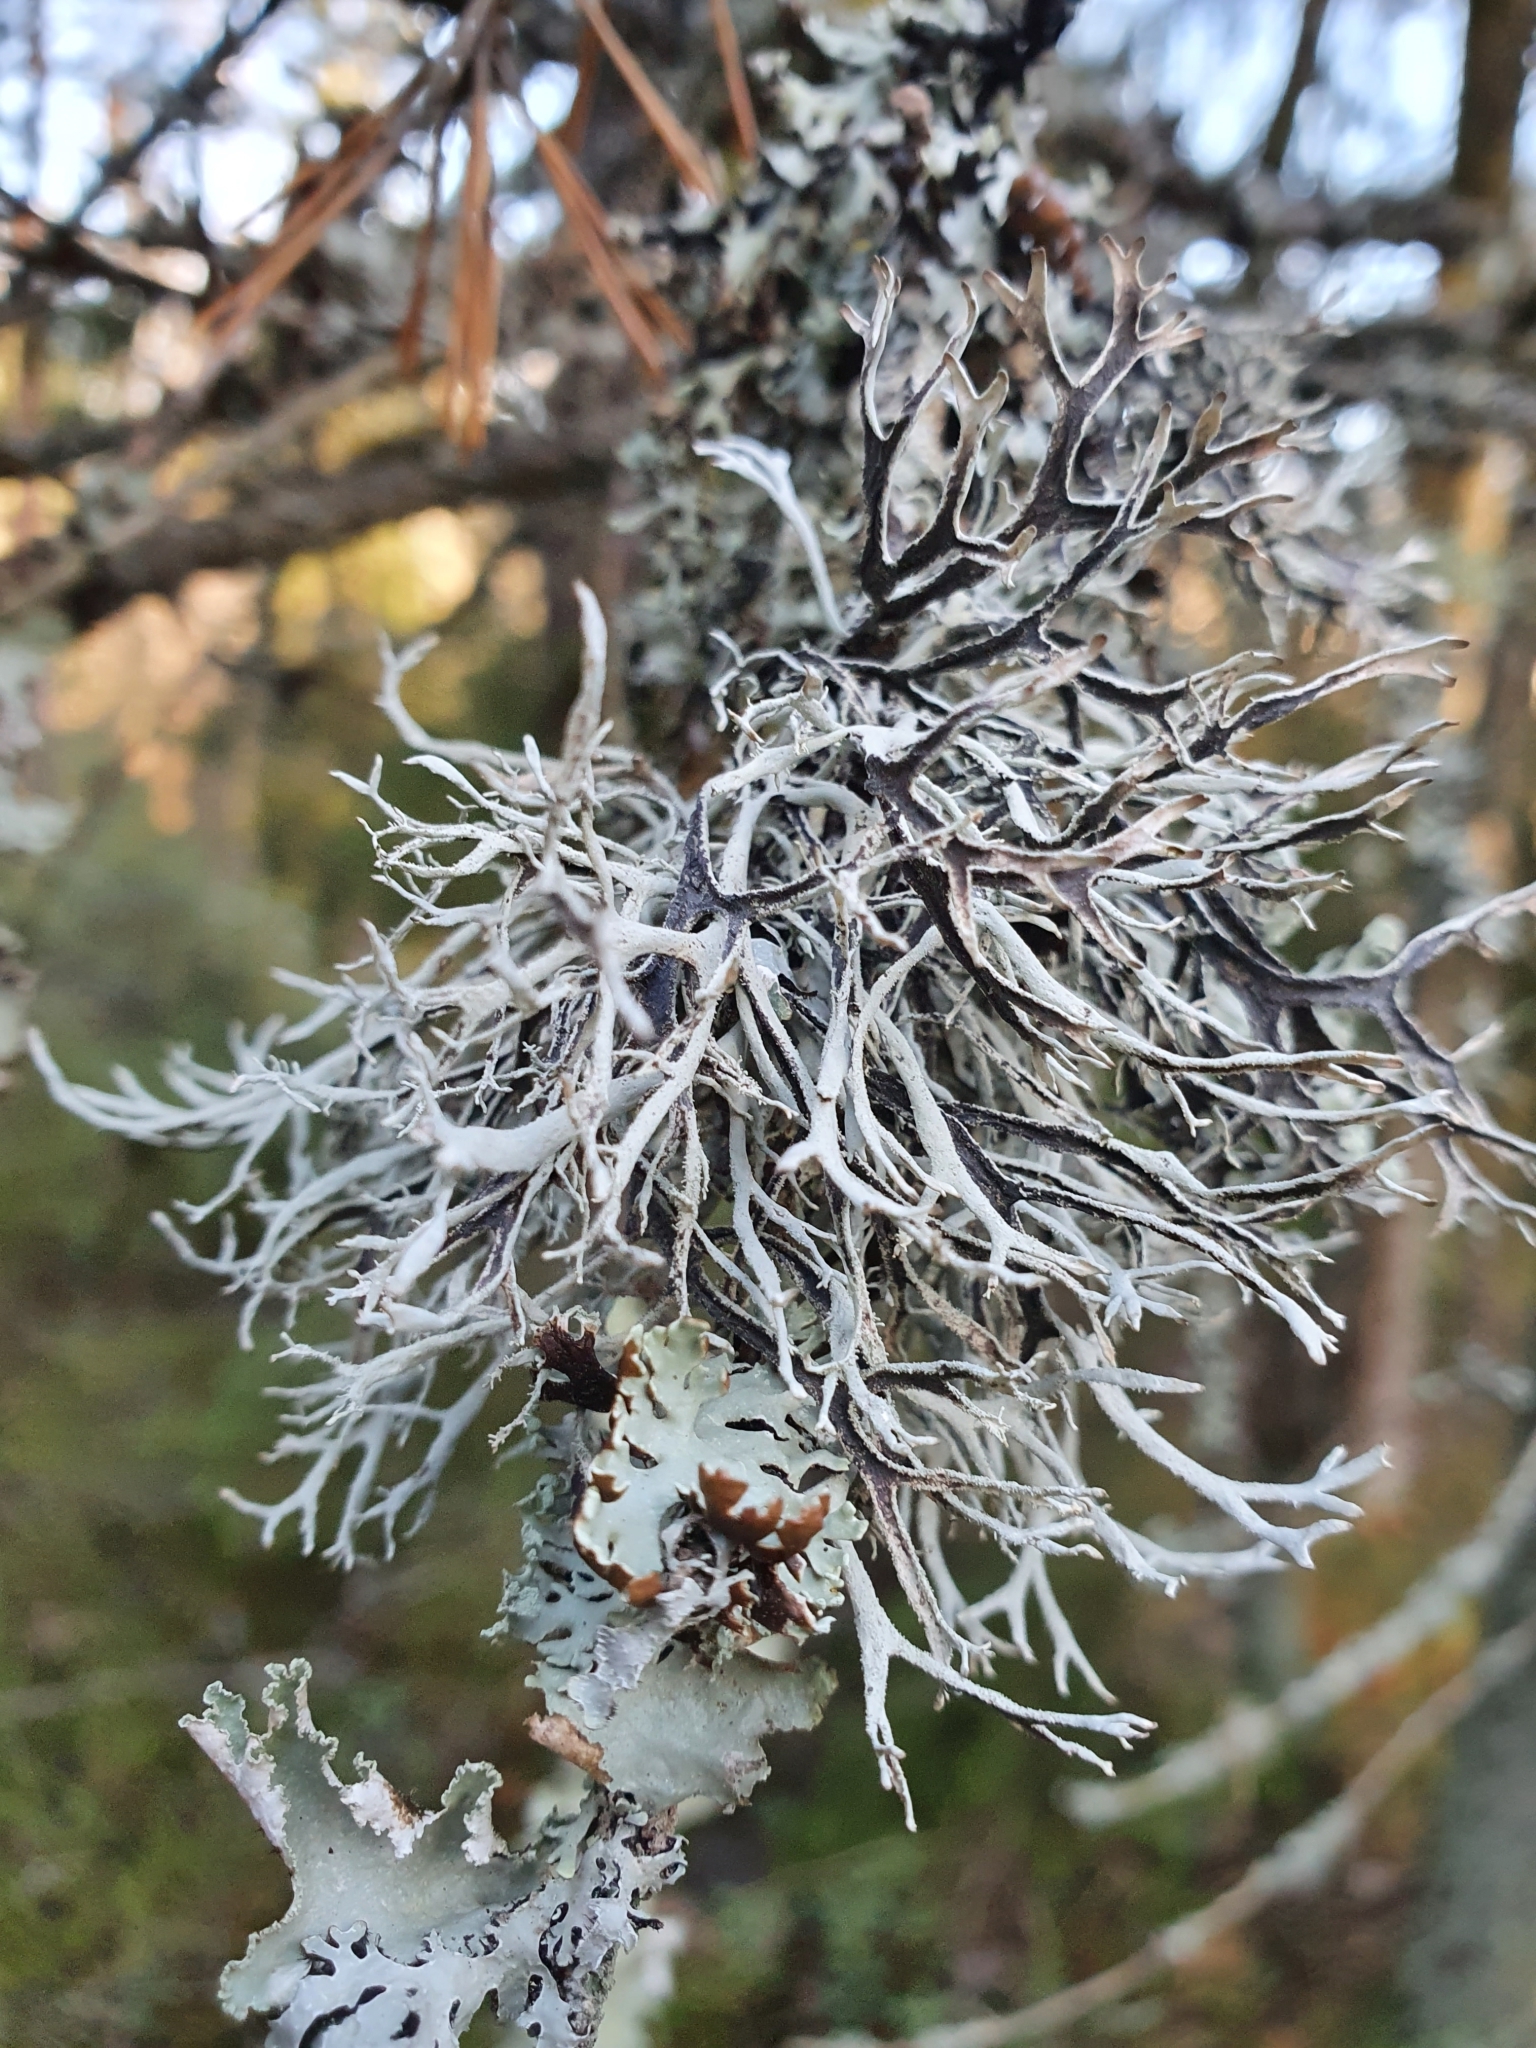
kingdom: Fungi
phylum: Ascomycota
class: Lecanoromycetes
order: Lecanorales
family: Parmeliaceae
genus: Pseudevernia
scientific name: Pseudevernia furfuracea
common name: Tree moss
